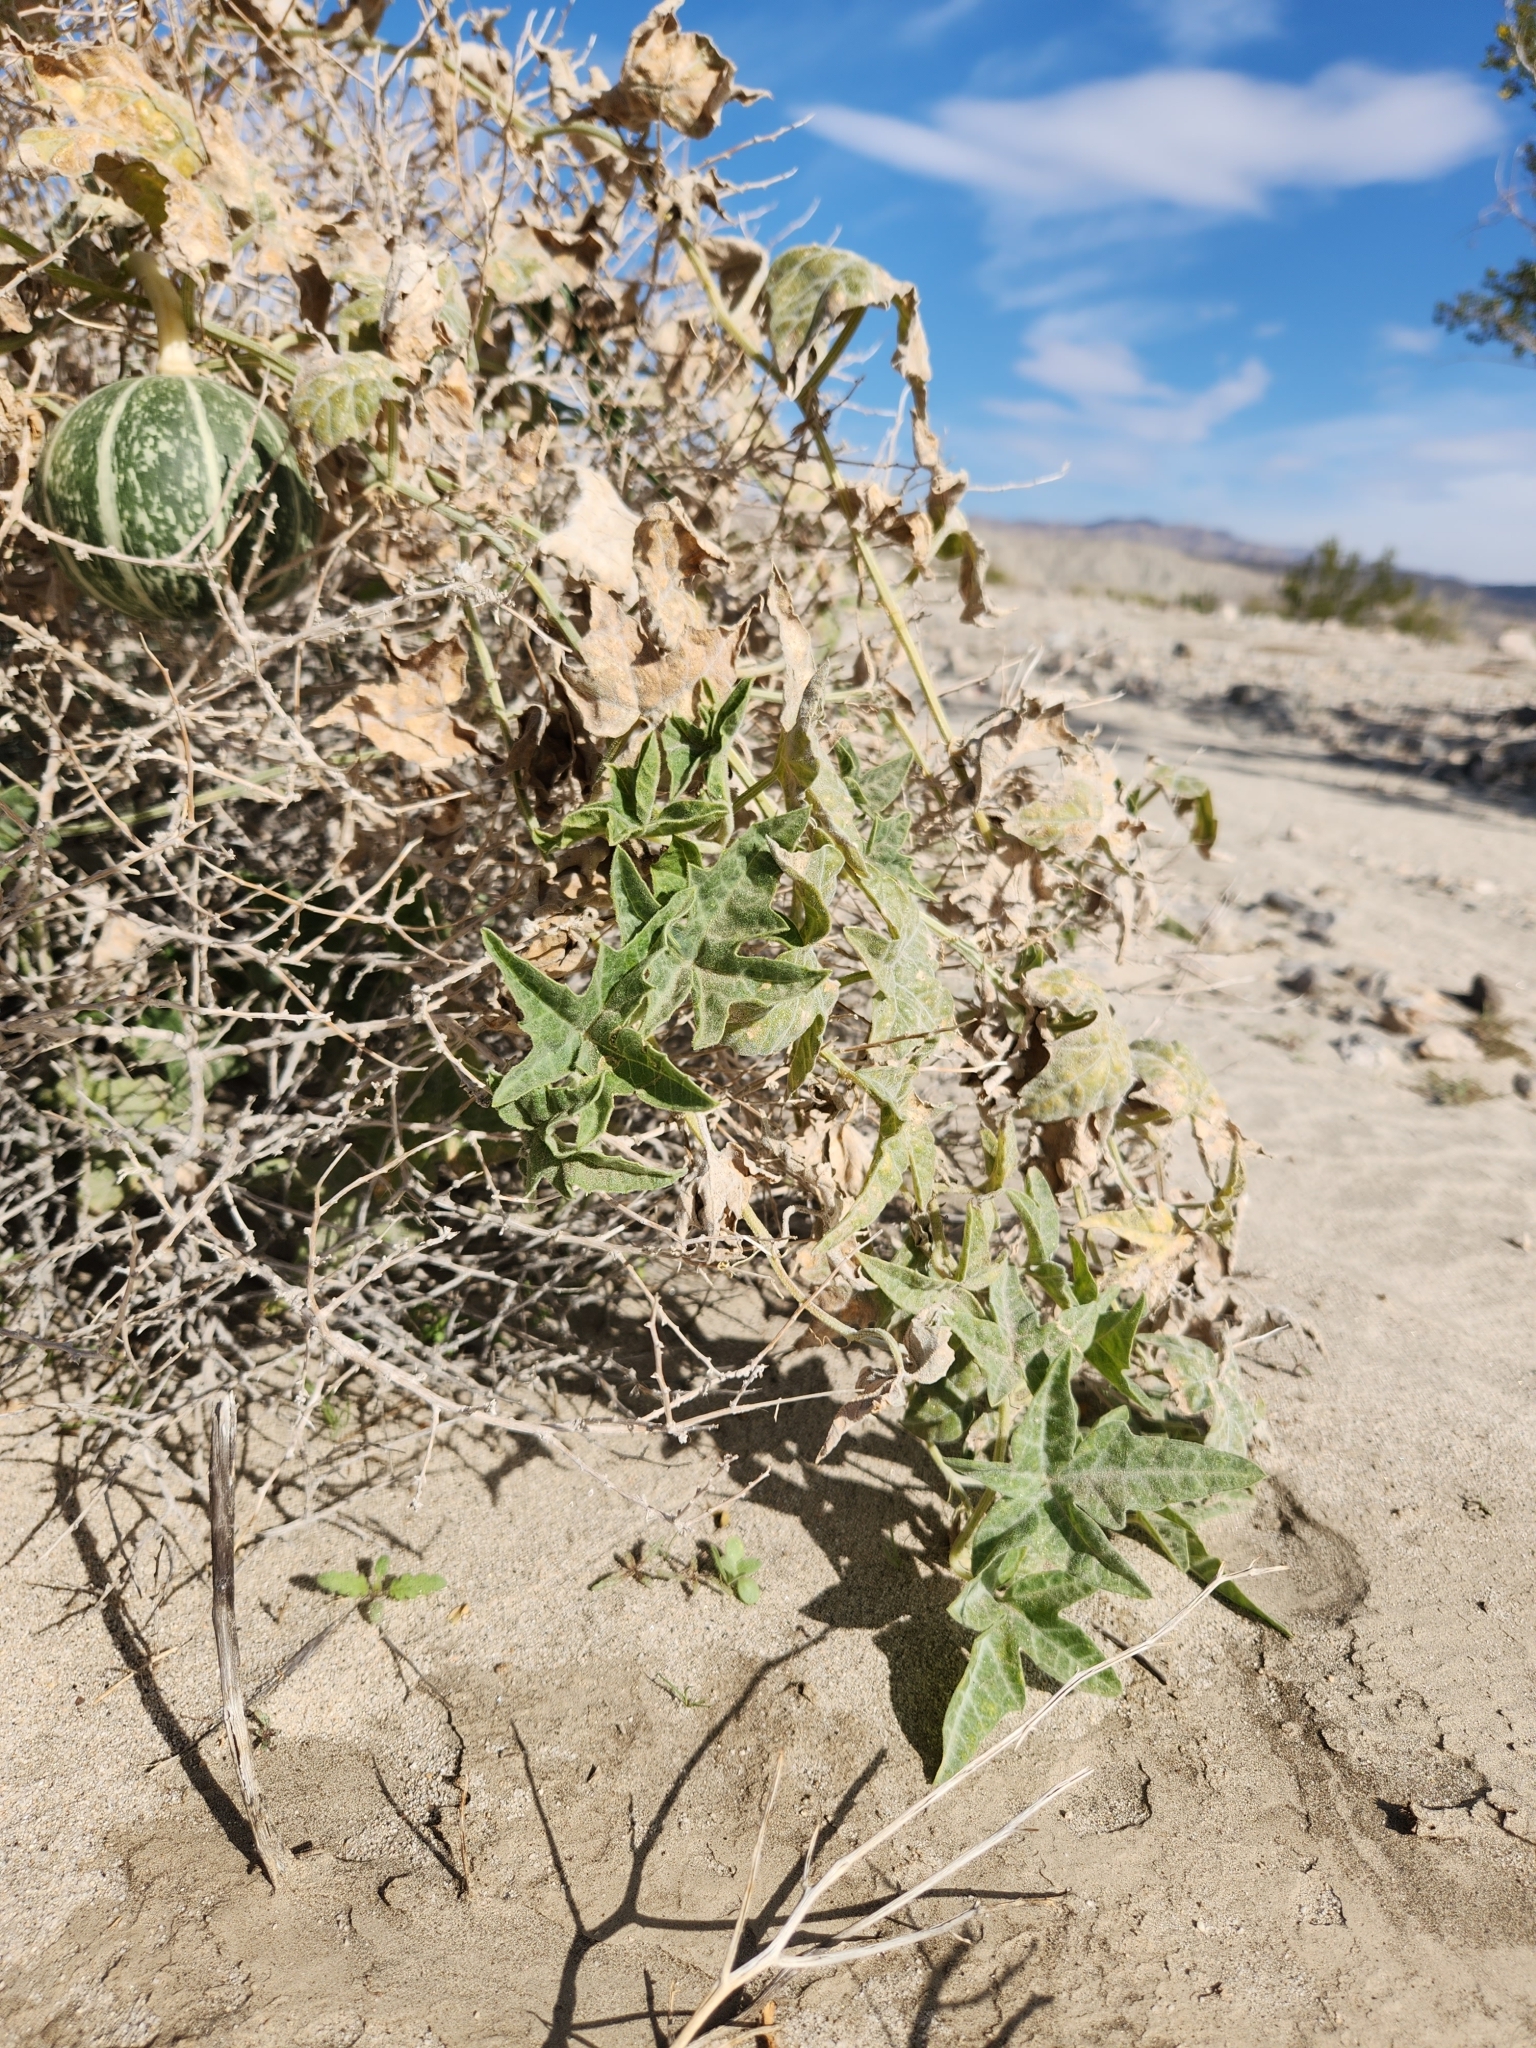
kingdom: Plantae
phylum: Tracheophyta
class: Magnoliopsida
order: Cucurbitales
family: Cucurbitaceae
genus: Cucurbita
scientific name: Cucurbita palmata
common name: Coyote-melon
